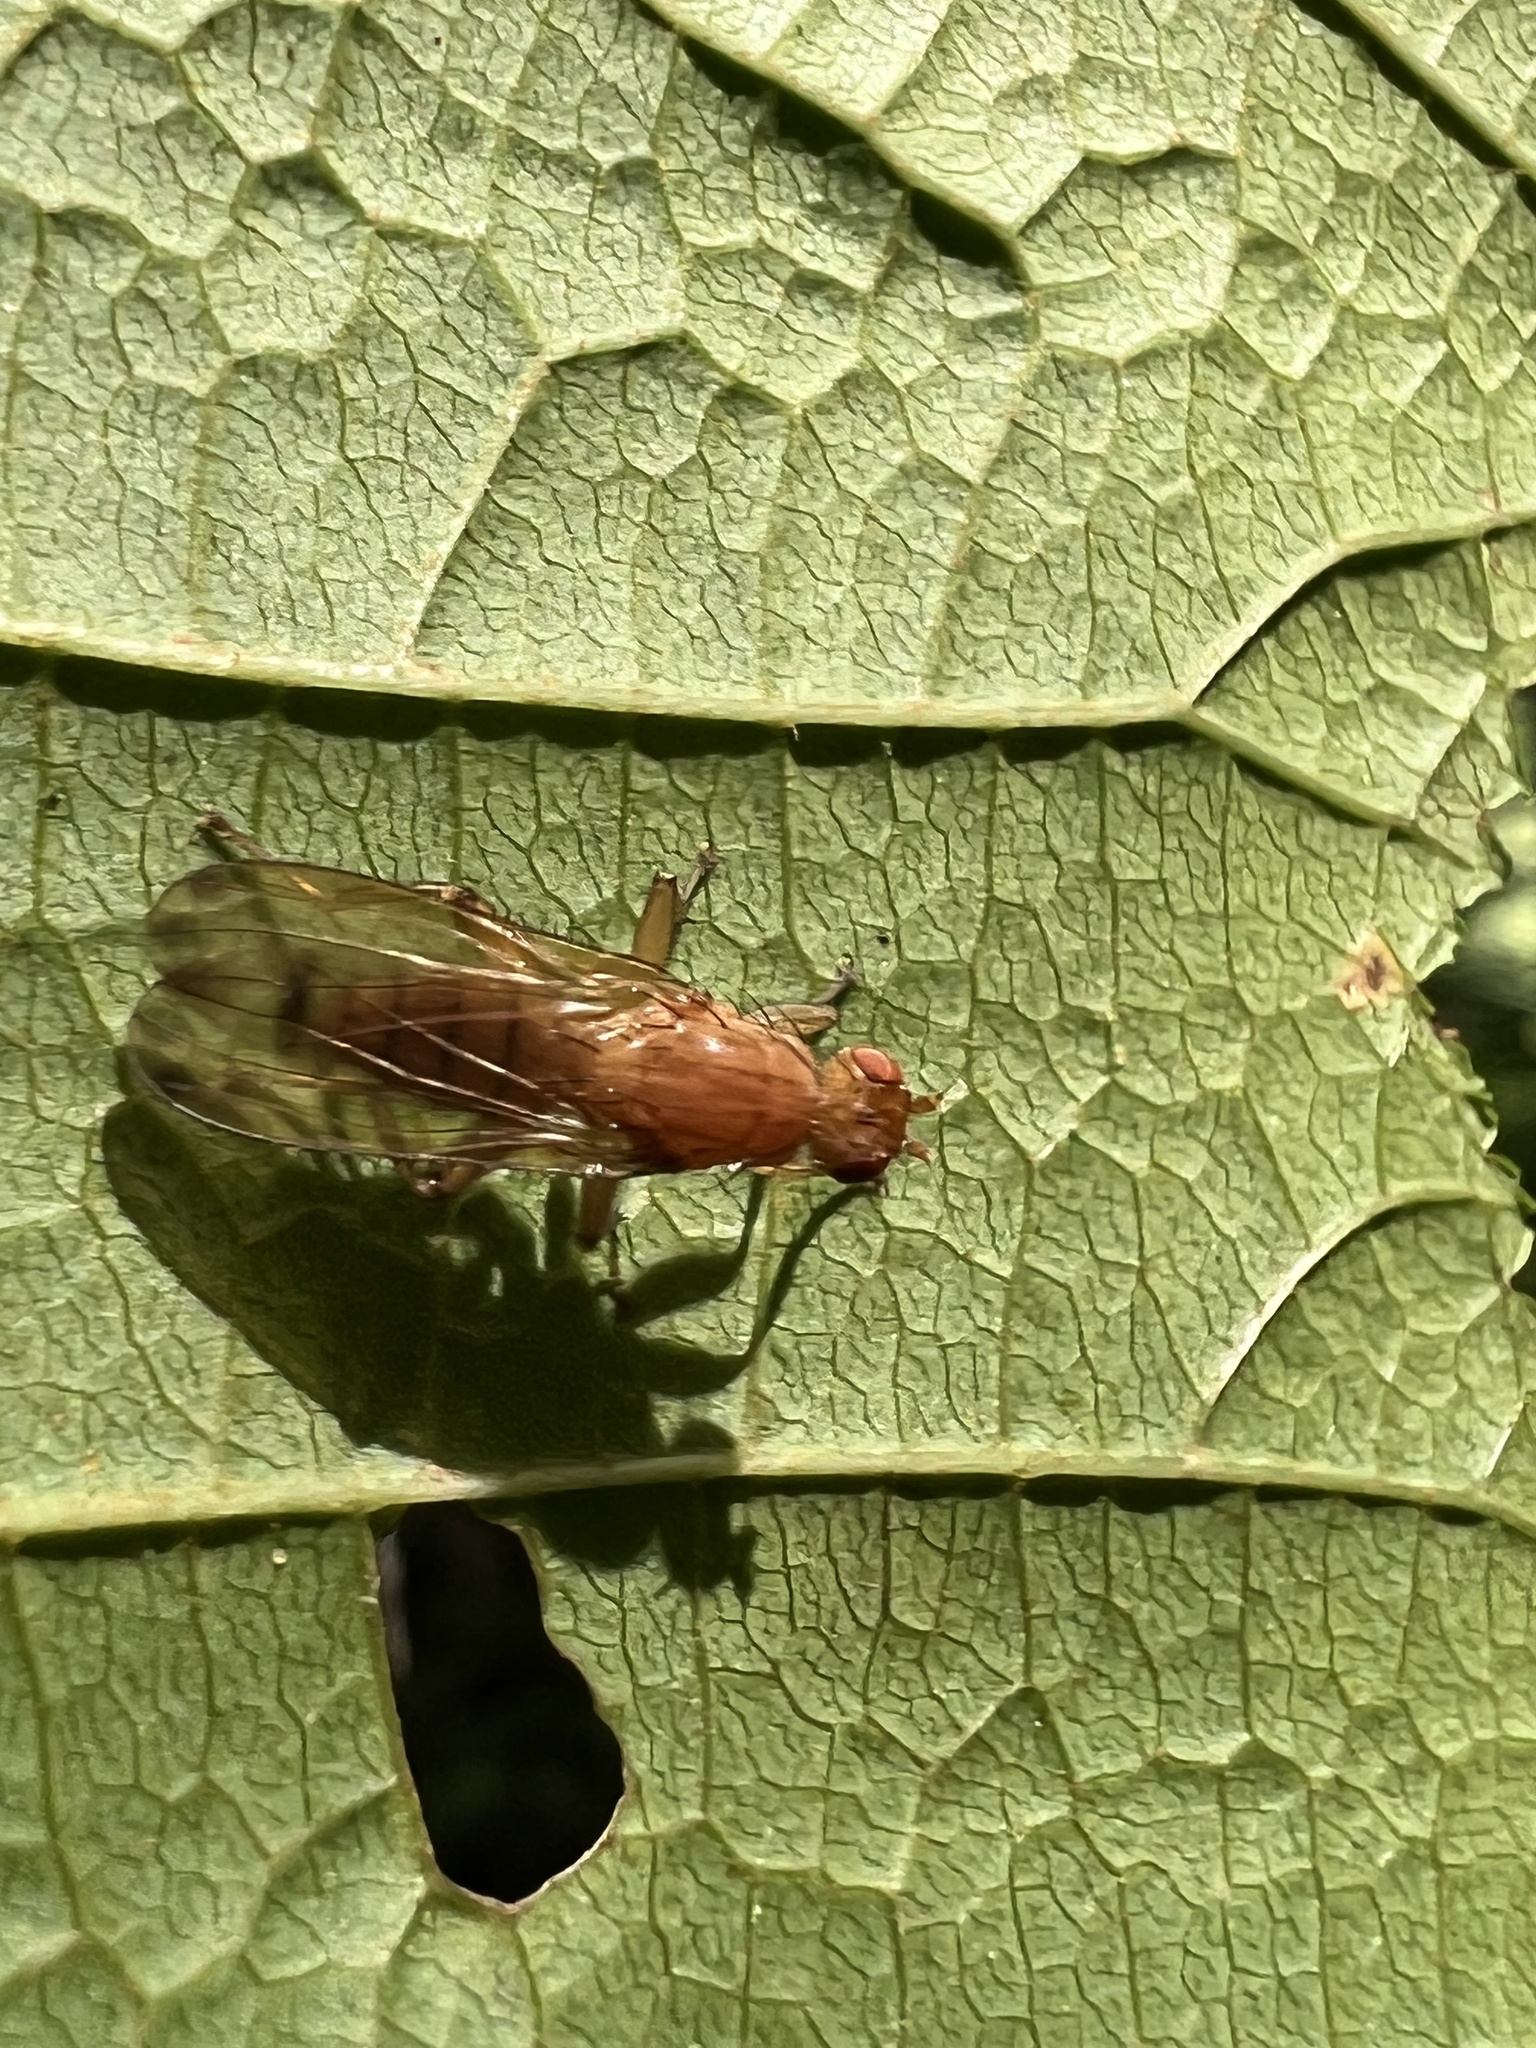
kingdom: Animalia
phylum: Arthropoda
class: Insecta
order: Diptera
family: Heleomyzidae
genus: Amoebaleria
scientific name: Amoebaleria helvola
